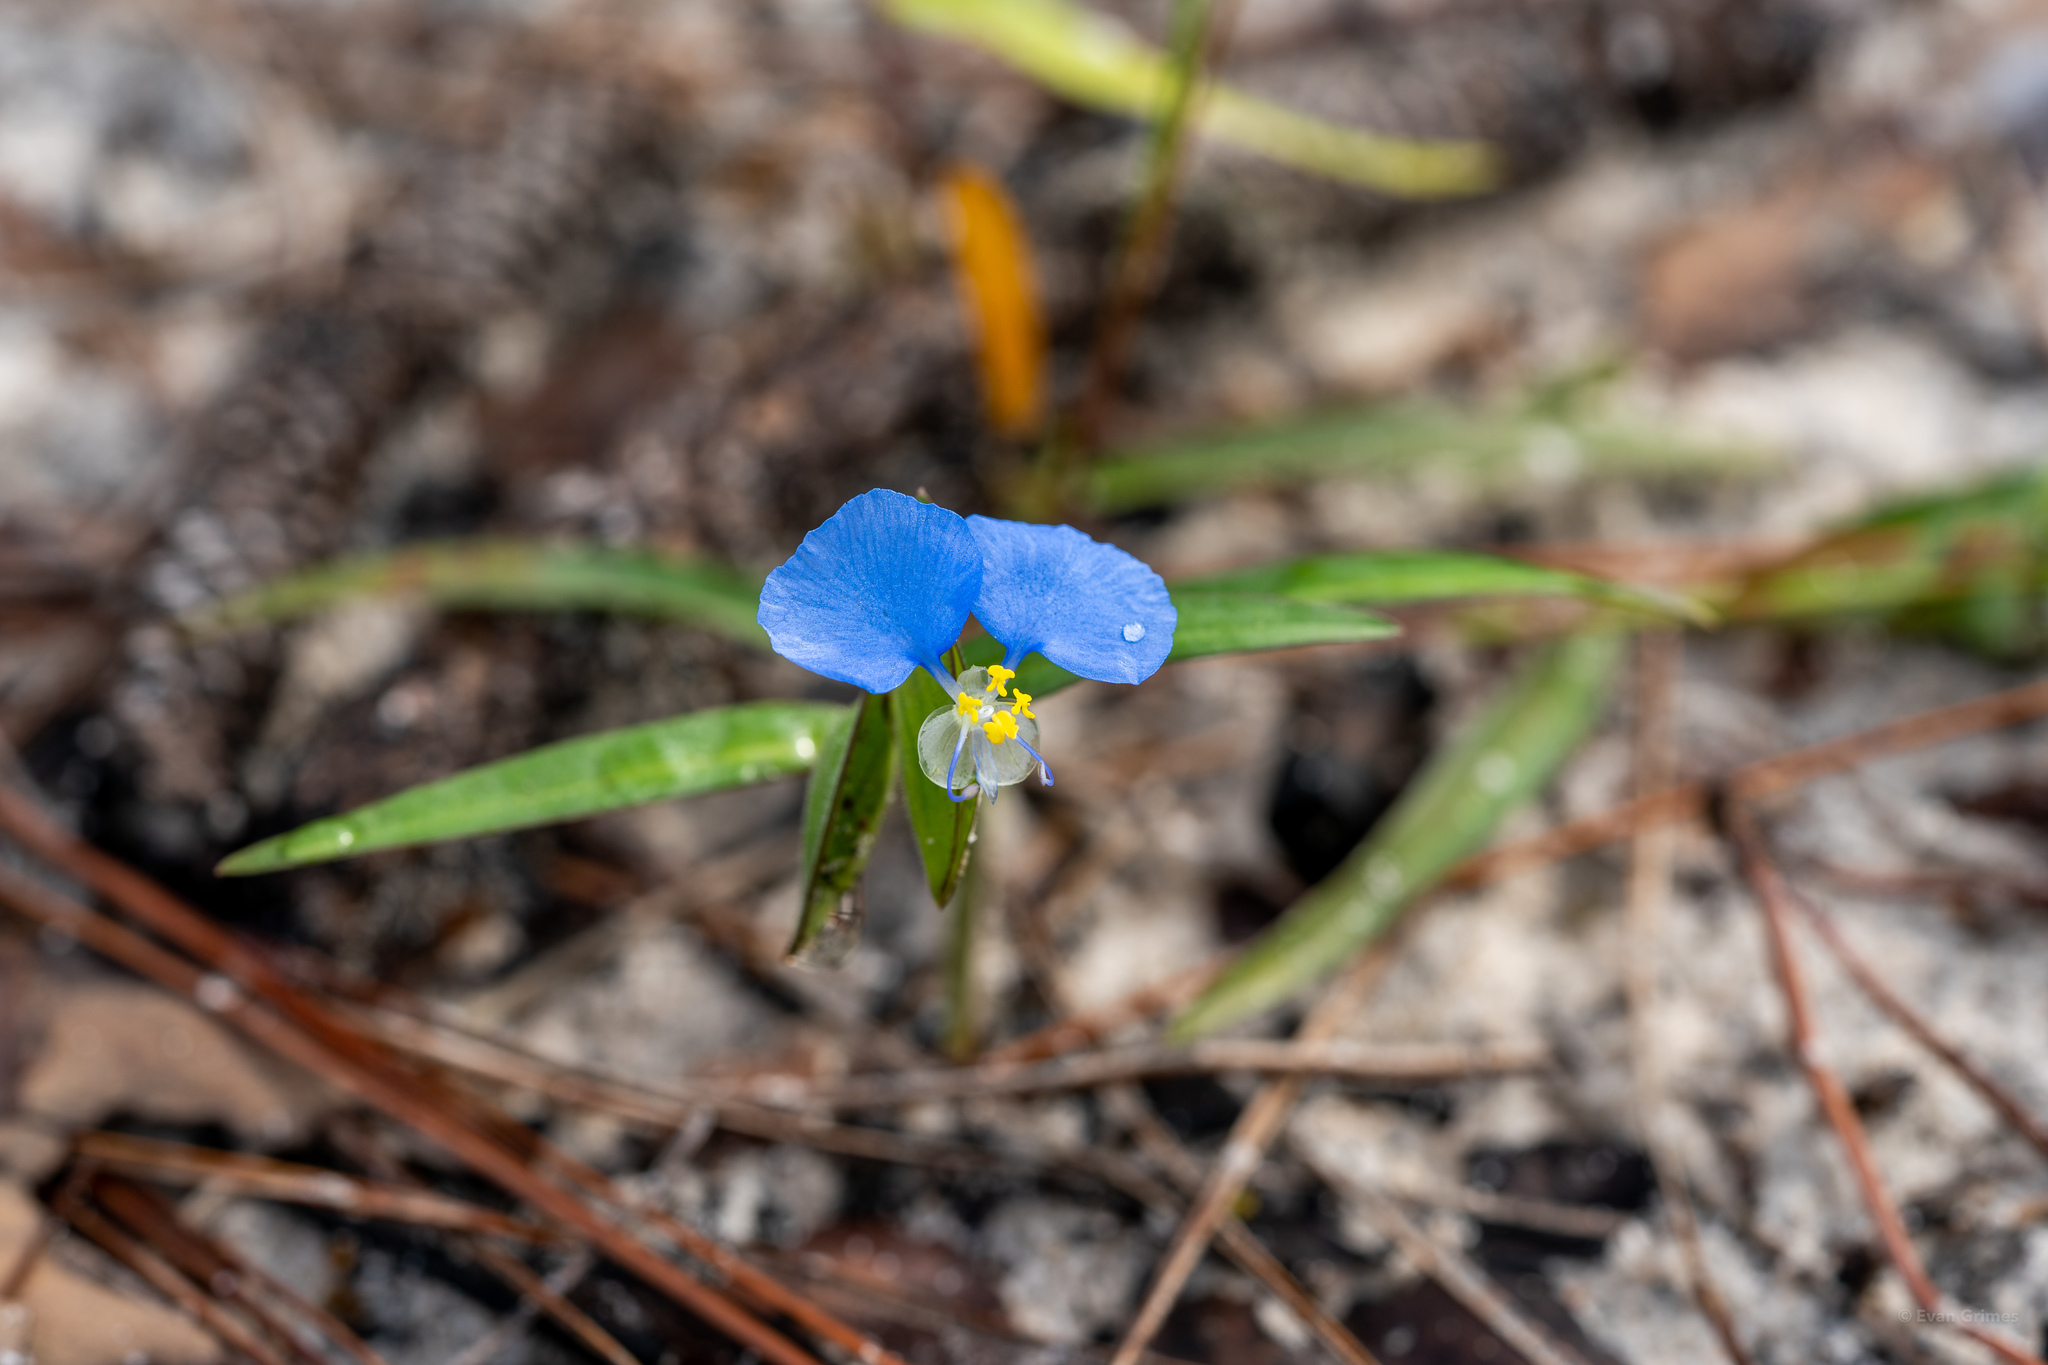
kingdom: Plantae
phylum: Tracheophyta
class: Liliopsida
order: Commelinales
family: Commelinaceae
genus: Commelina
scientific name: Commelina erecta
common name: Blousel blommetjie
